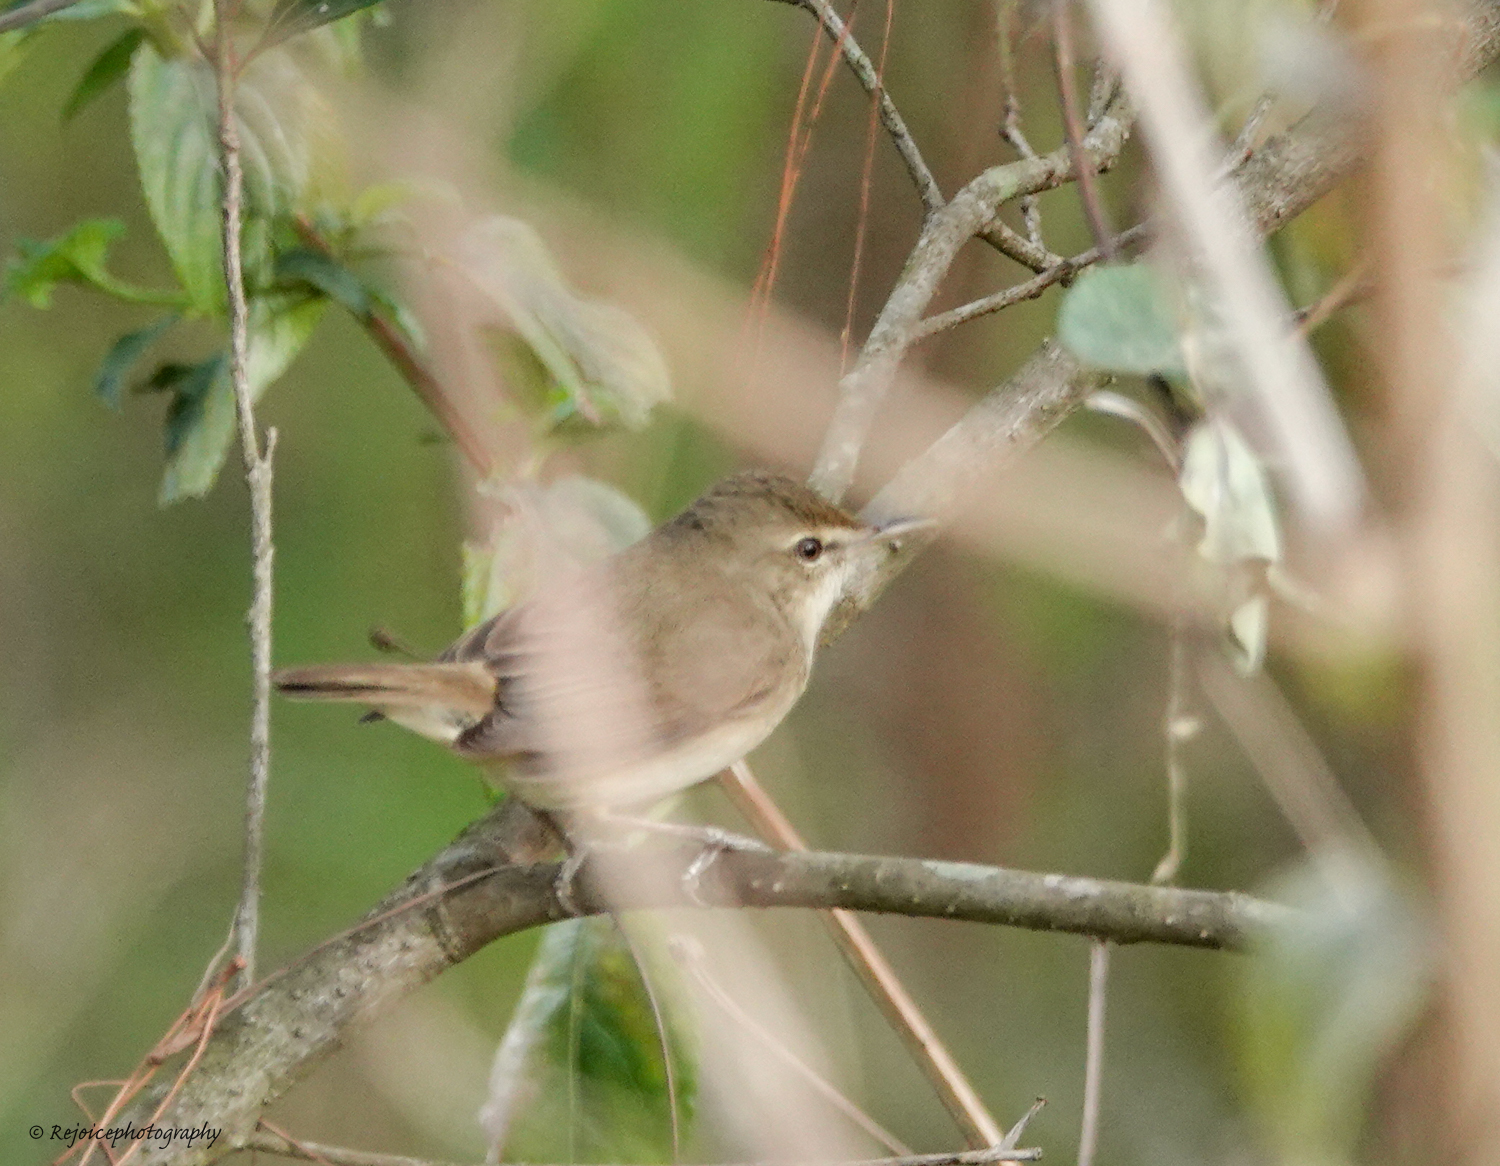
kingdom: Animalia
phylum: Chordata
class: Aves
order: Passeriformes
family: Acrocephalidae
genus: Acrocephalus
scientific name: Acrocephalus dumetorum
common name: Blyth's reed warbler
